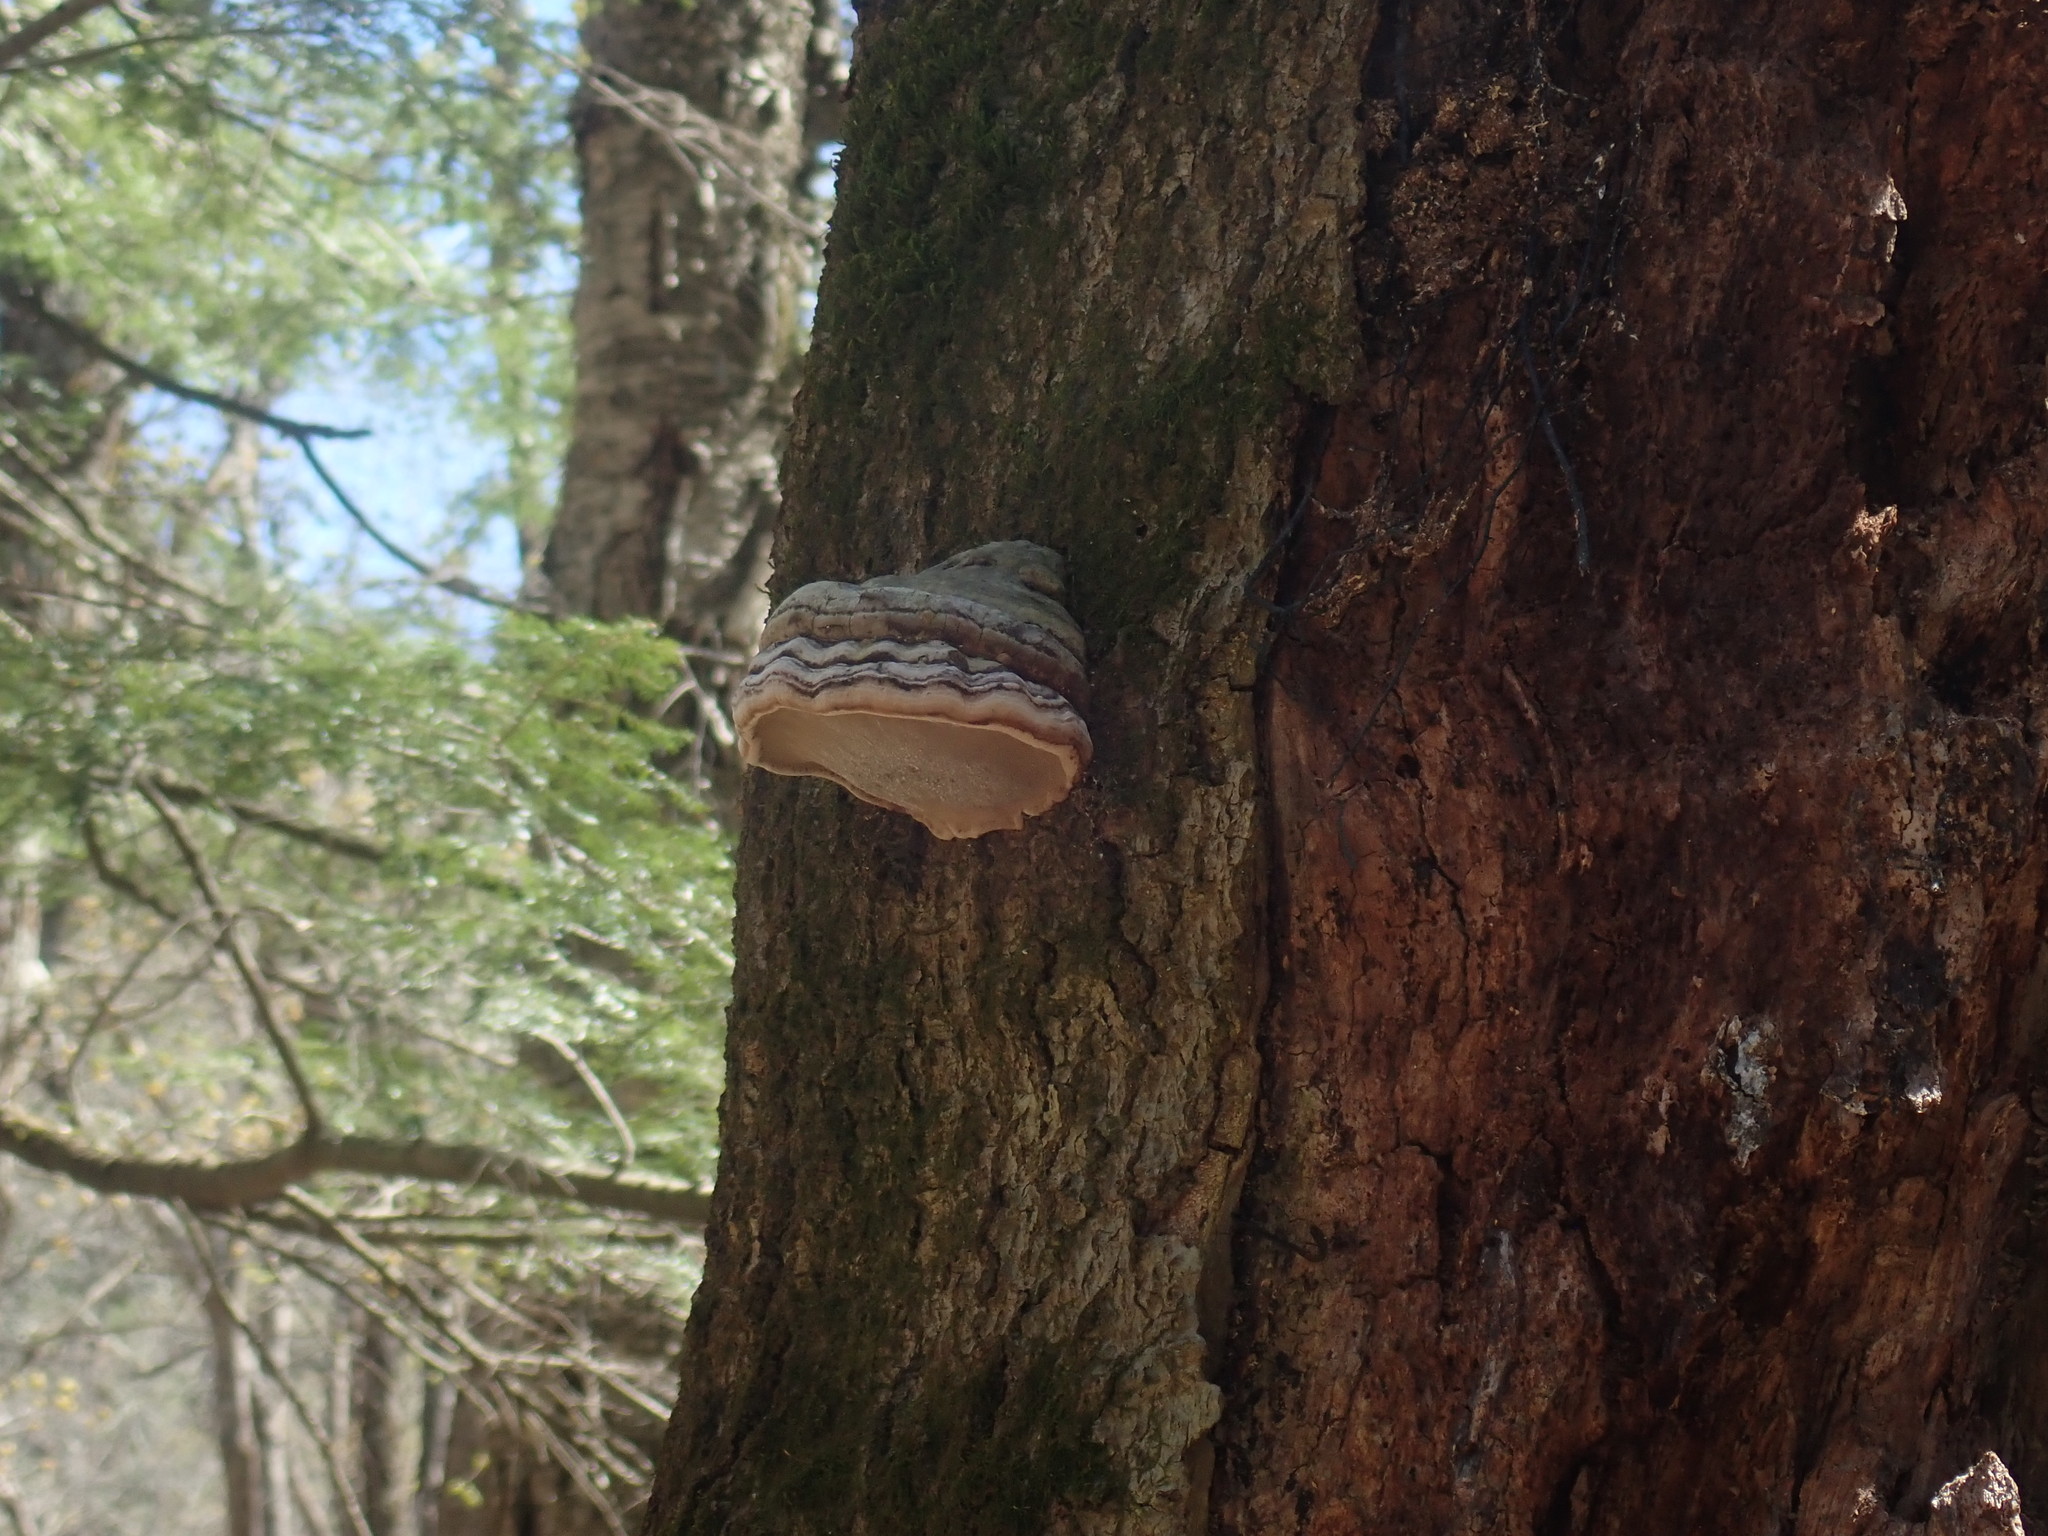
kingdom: Fungi
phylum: Basidiomycota
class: Agaricomycetes
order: Polyporales
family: Polyporaceae
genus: Fomes
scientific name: Fomes fomentarius
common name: Hoof fungus
